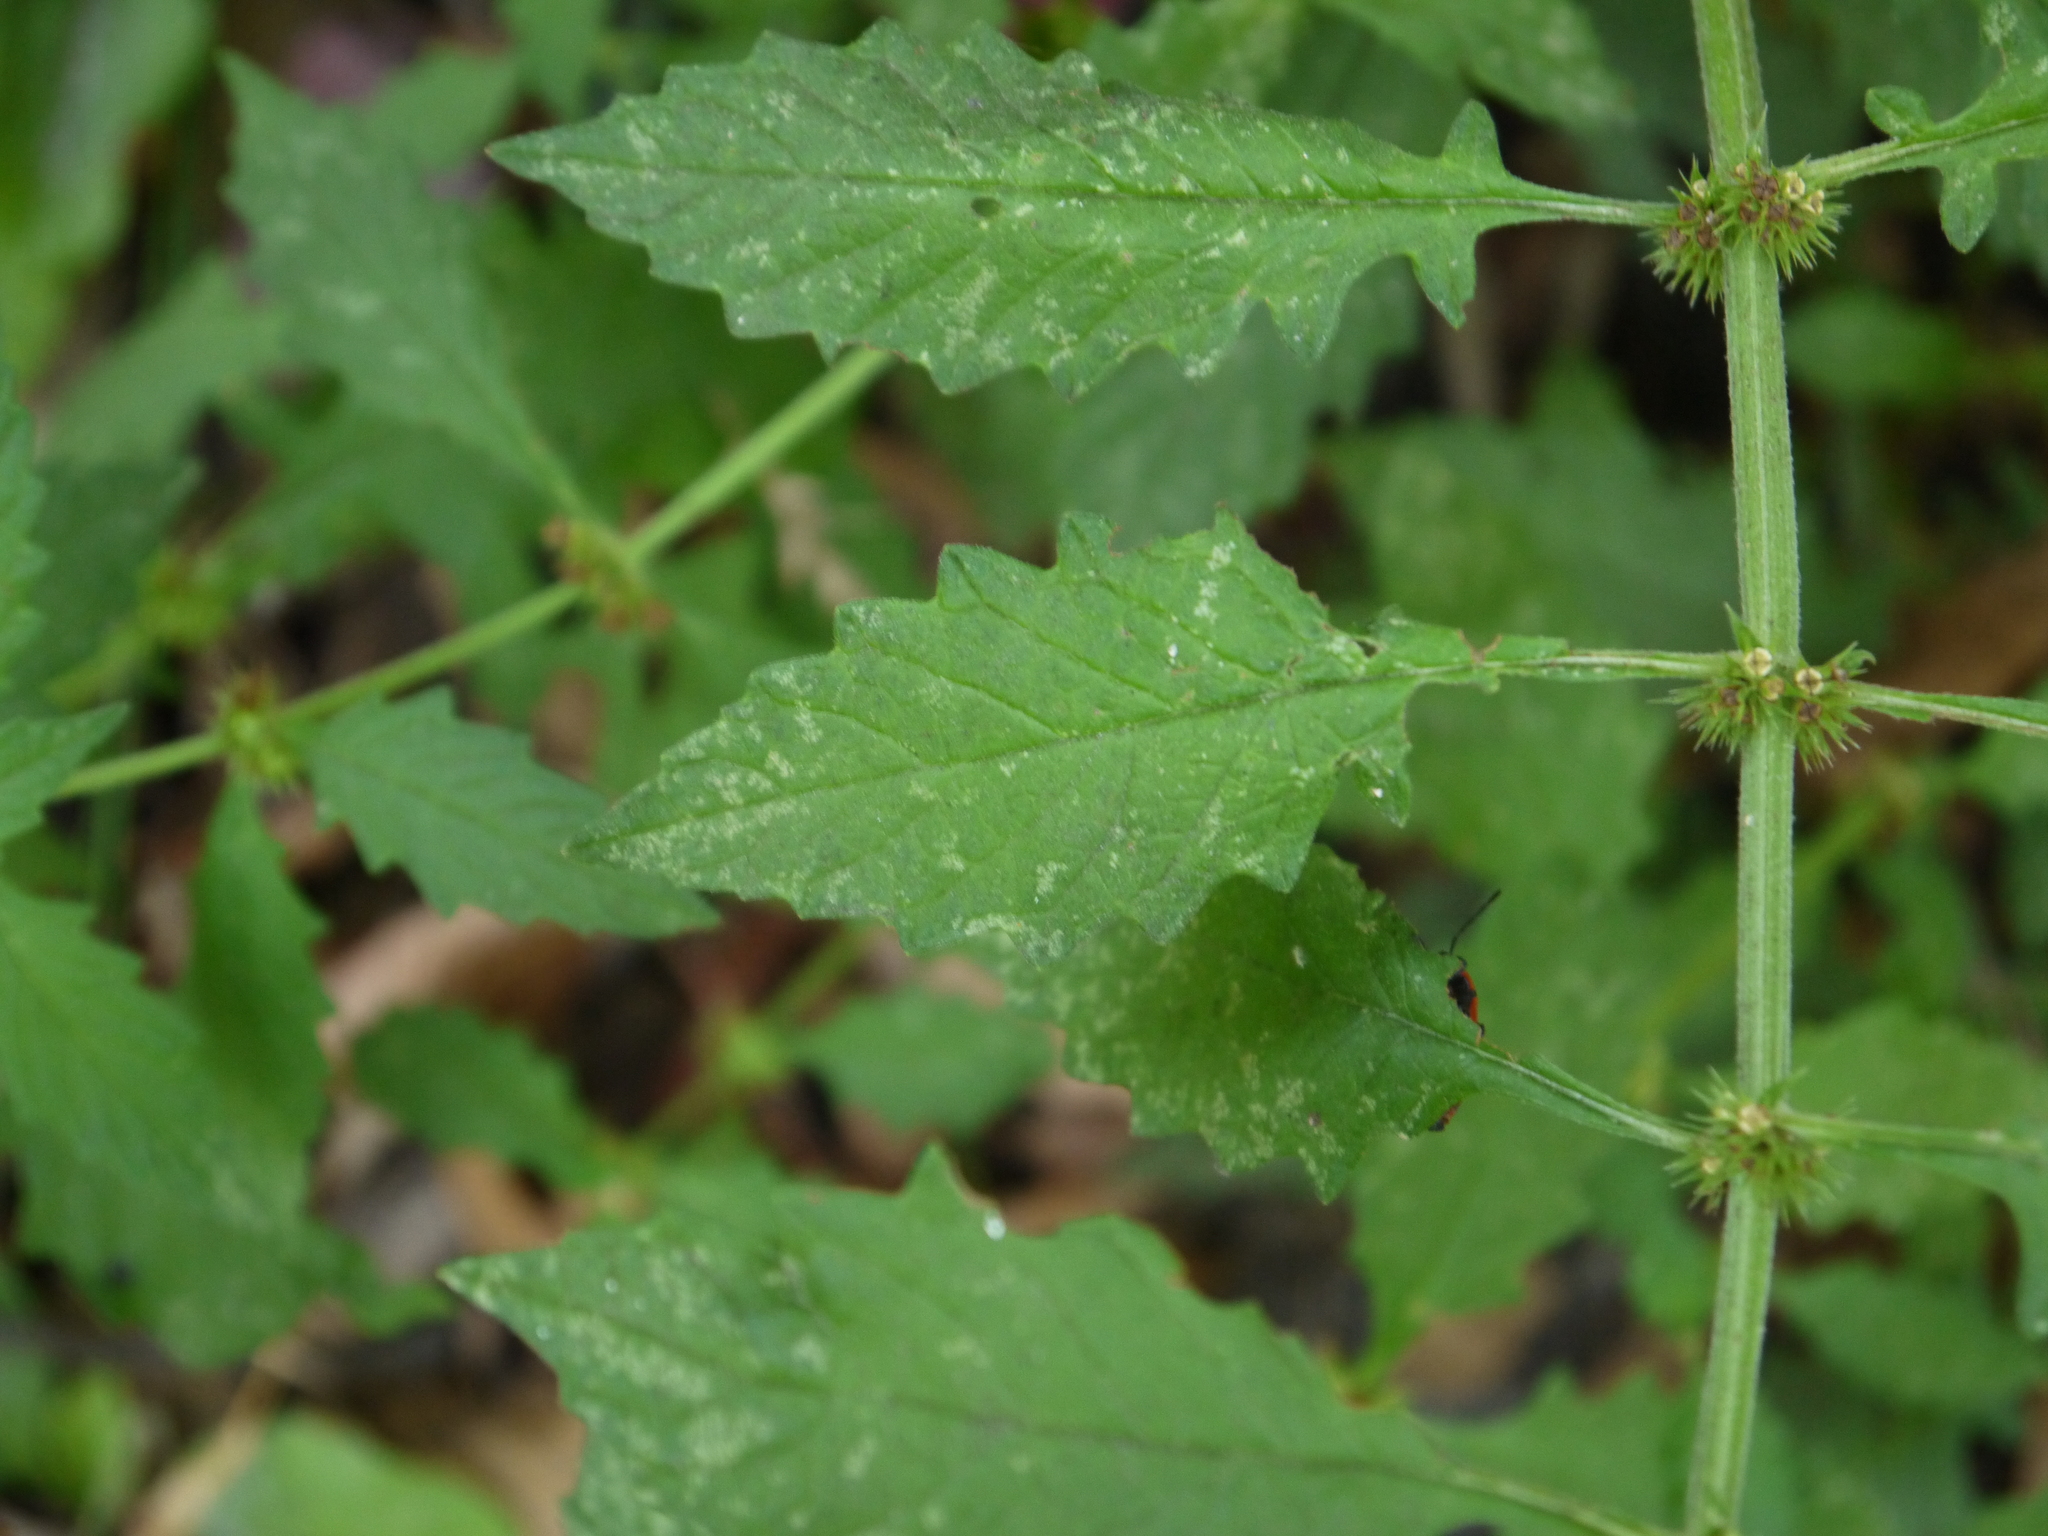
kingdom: Plantae
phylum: Tracheophyta
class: Magnoliopsida
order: Lamiales
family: Lamiaceae
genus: Lycopus
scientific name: Lycopus europaeus
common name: European bugleweed
